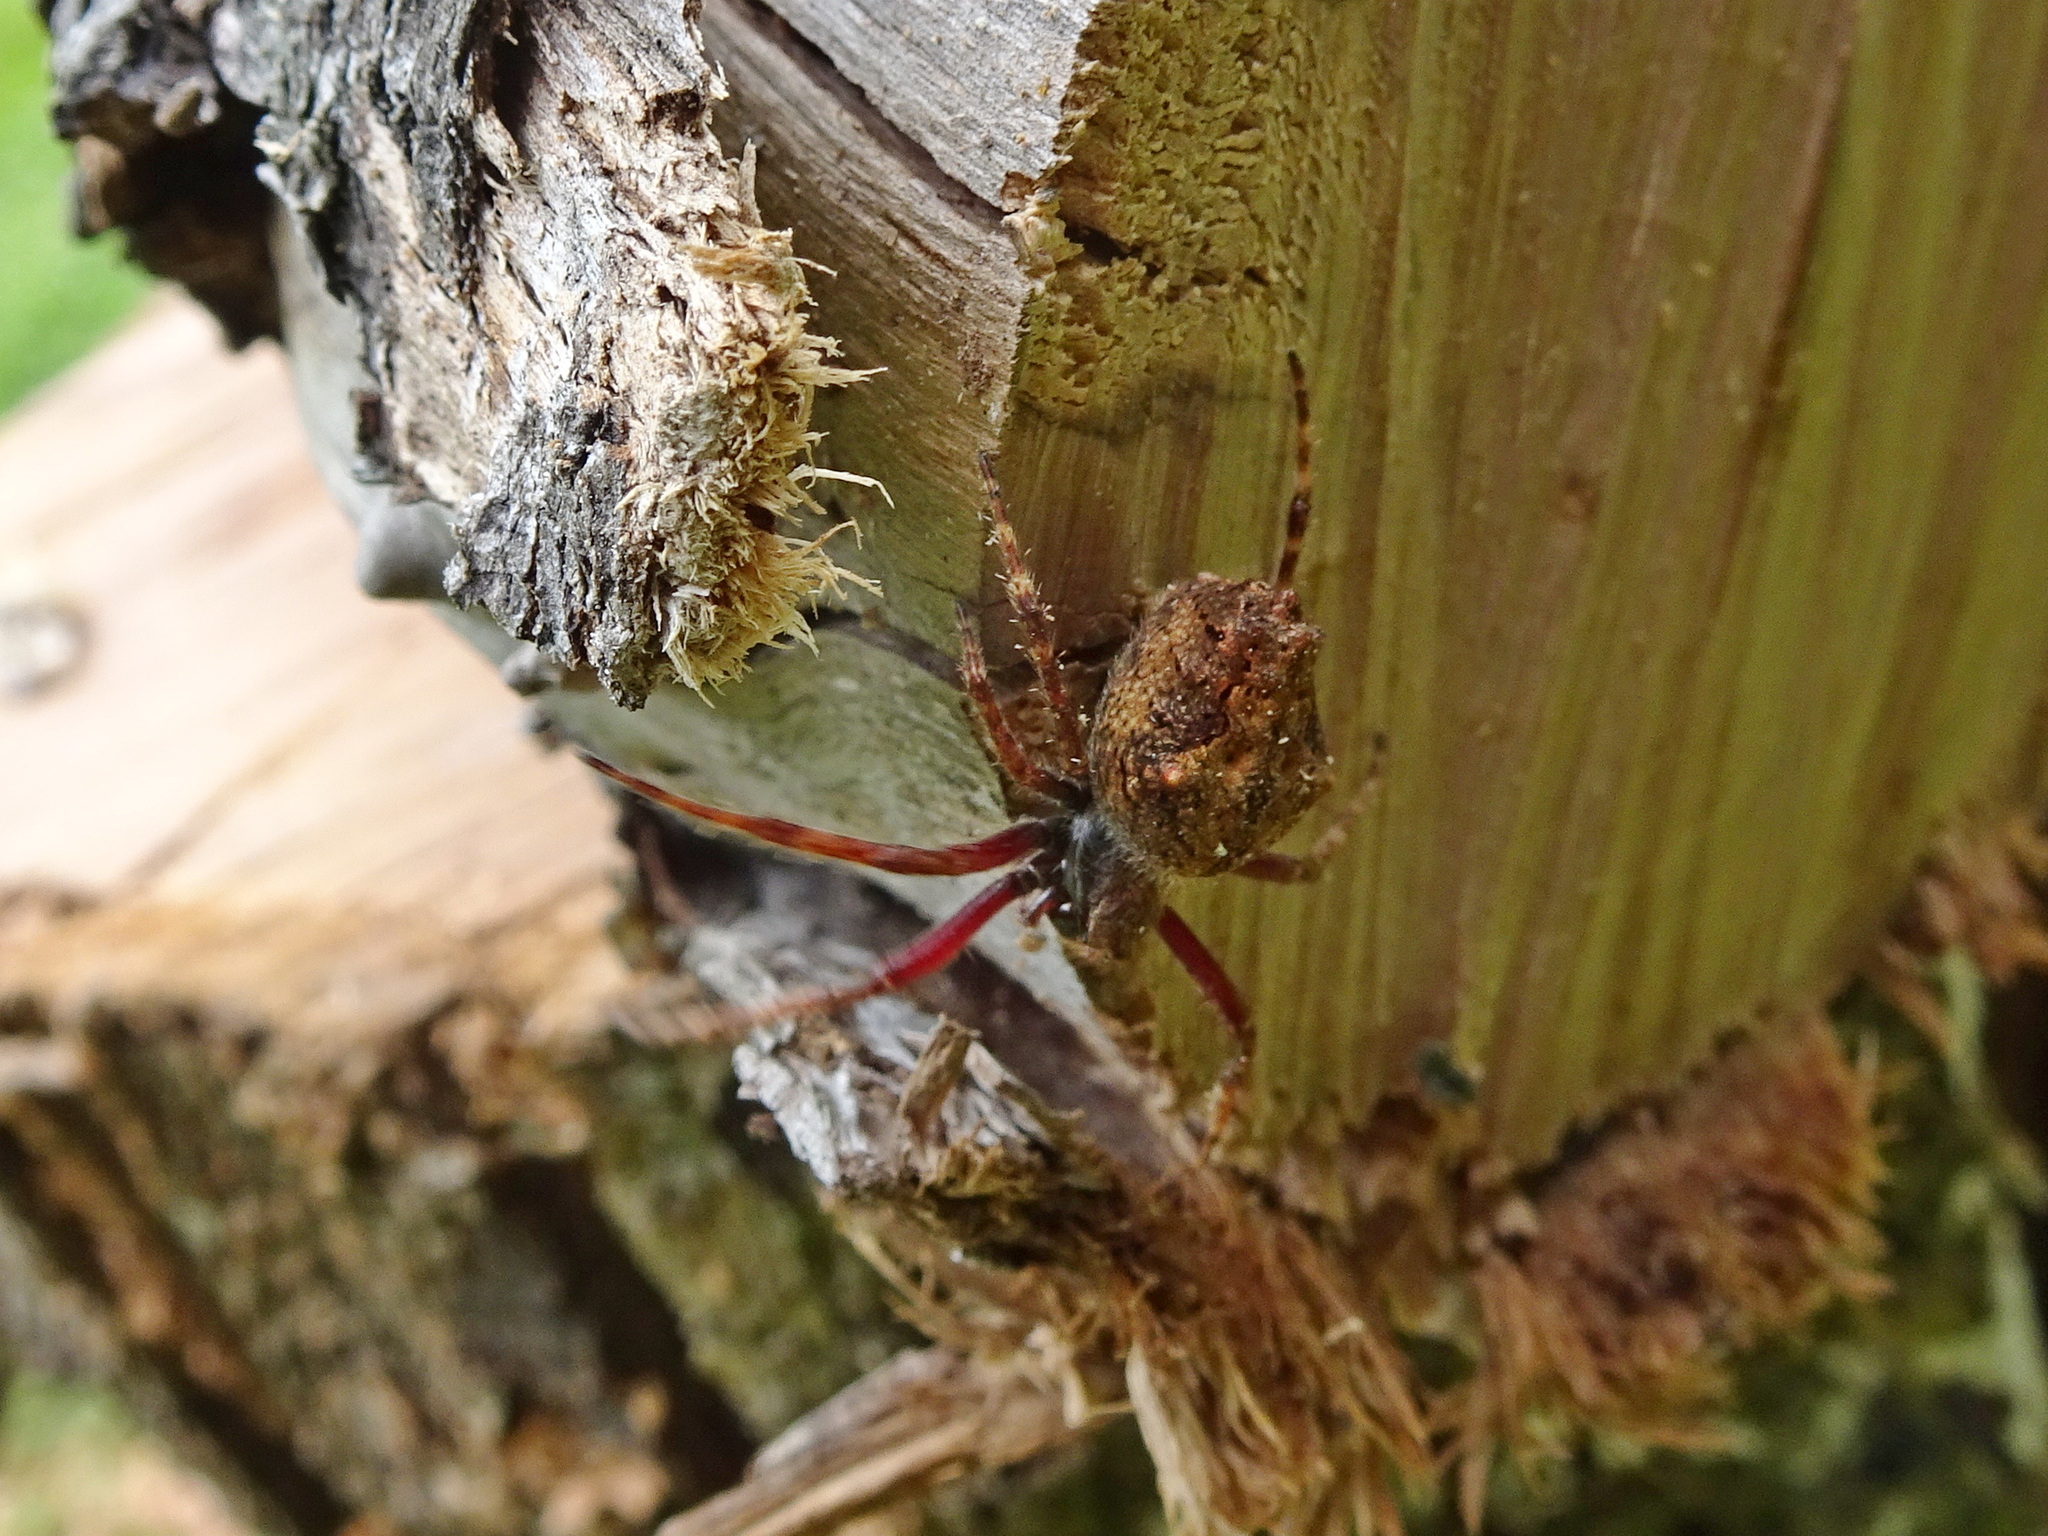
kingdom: Animalia
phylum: Arthropoda
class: Arachnida
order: Araneae
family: Araneidae
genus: Eriophora
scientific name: Eriophora pustulosa
